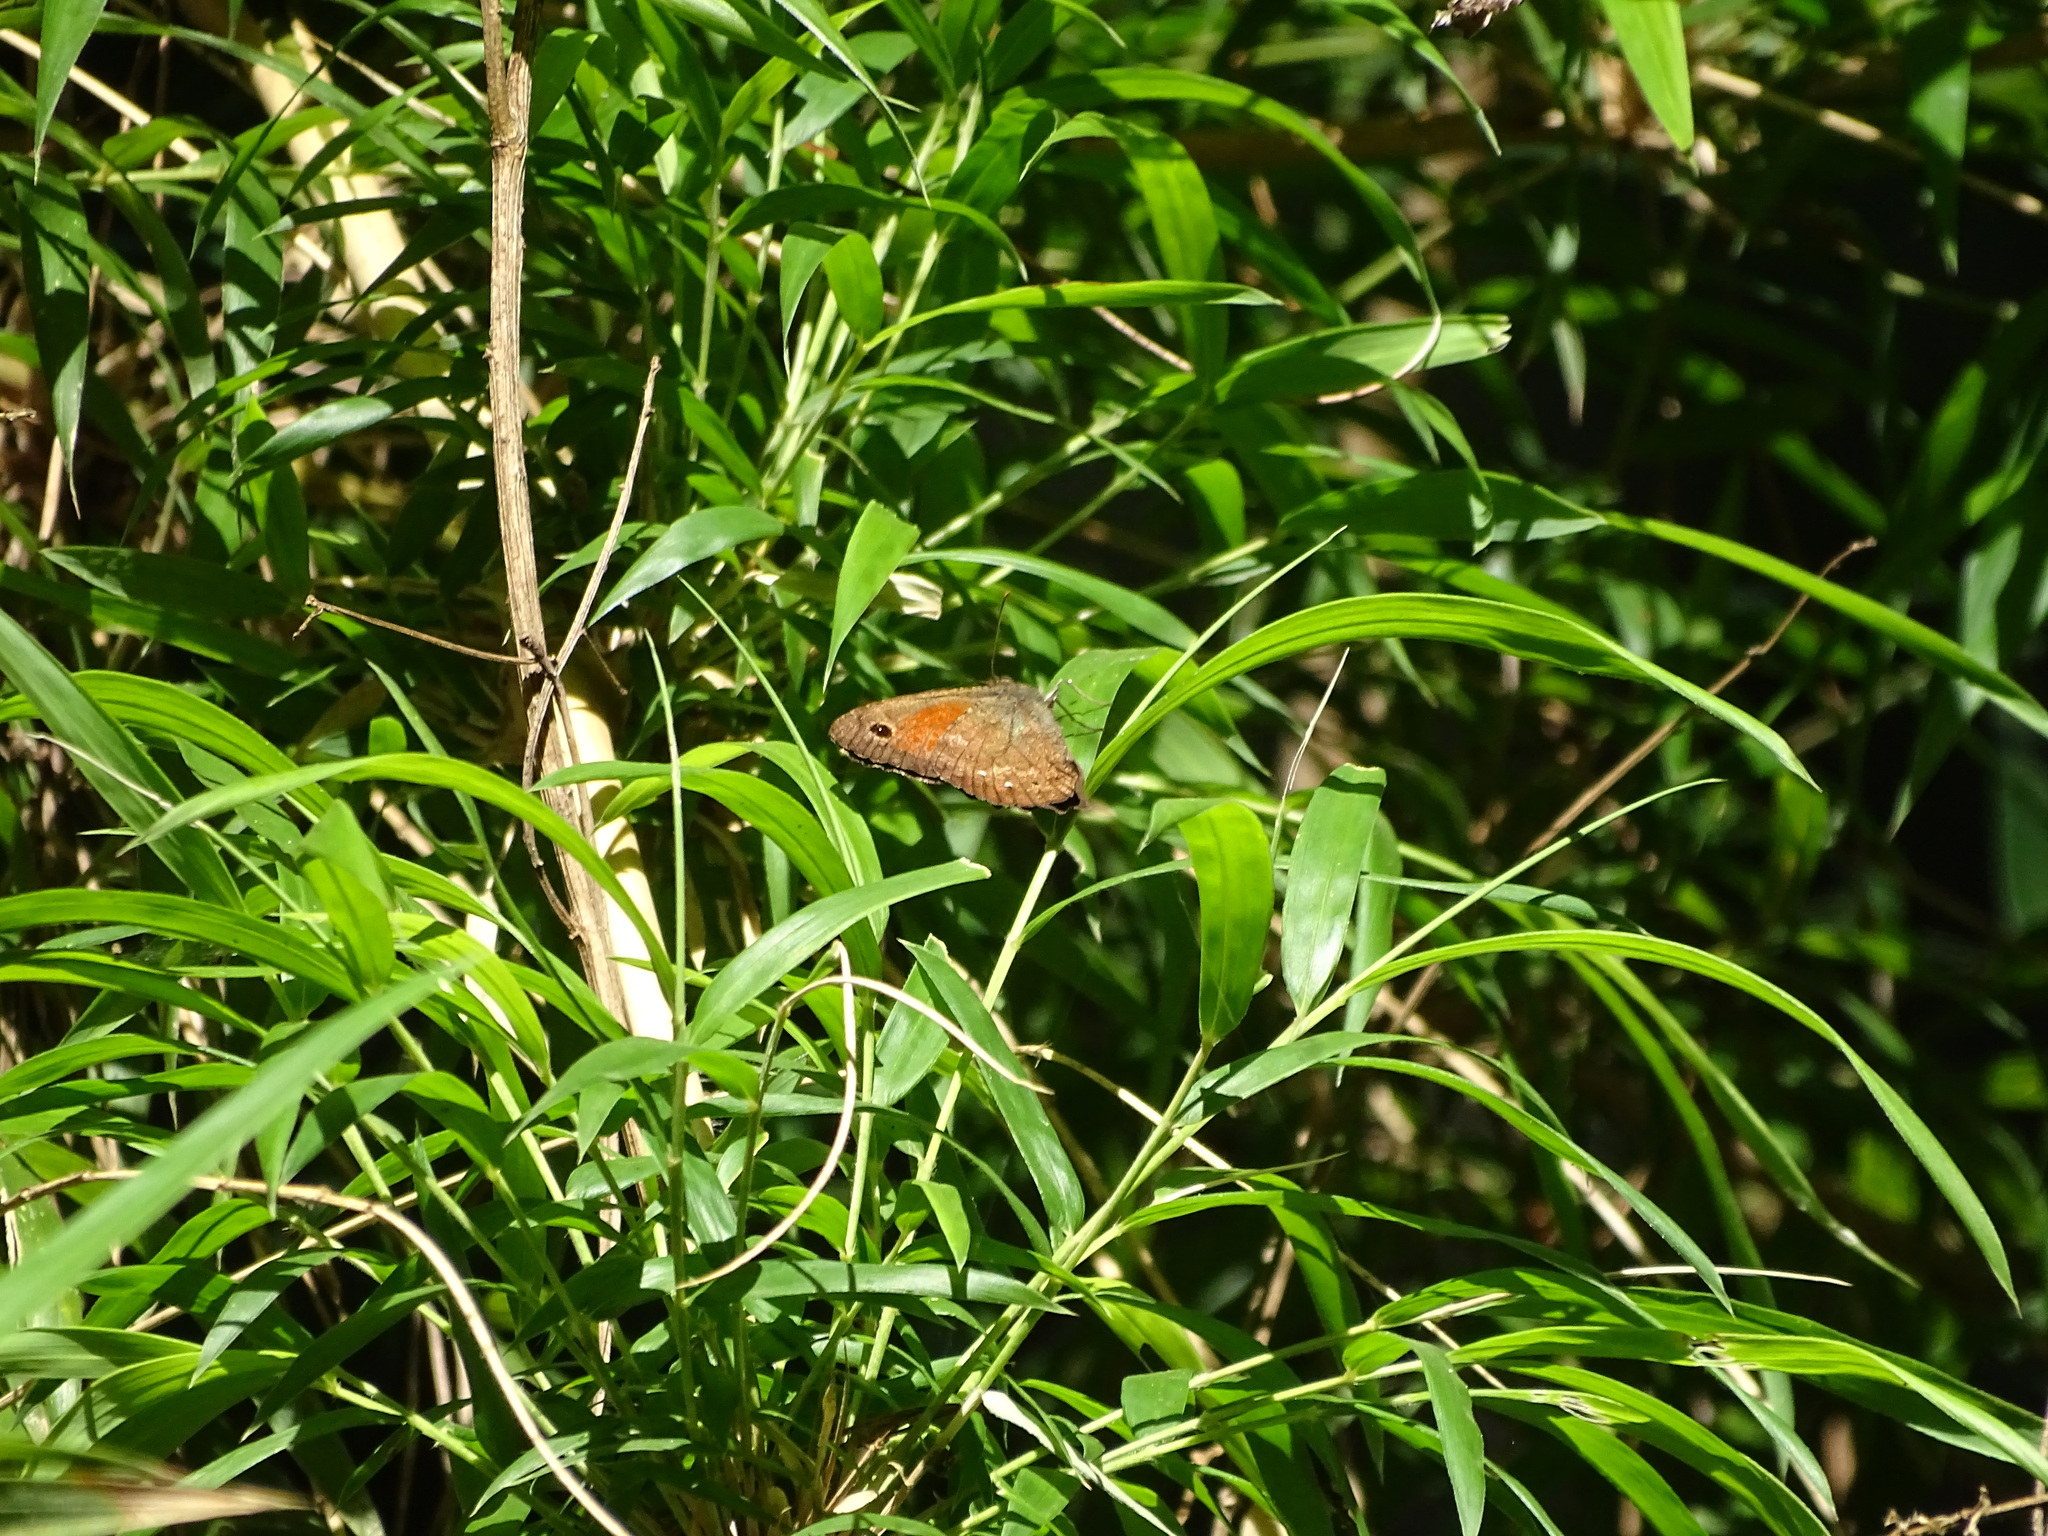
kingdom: Animalia
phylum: Arthropoda
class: Insecta
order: Lepidoptera
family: Nymphalidae
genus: Auca
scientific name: Auca coctei
